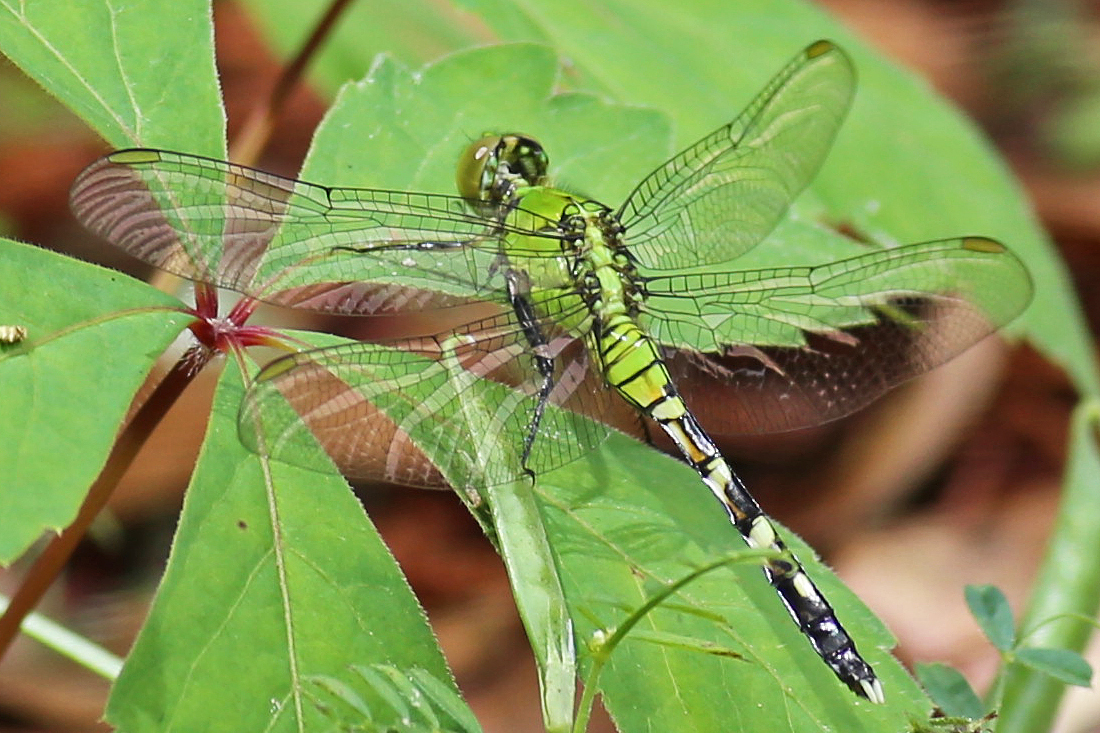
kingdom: Animalia
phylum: Arthropoda
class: Insecta
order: Odonata
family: Libellulidae
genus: Erythemis
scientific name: Erythemis simplicicollis
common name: Eastern pondhawk
